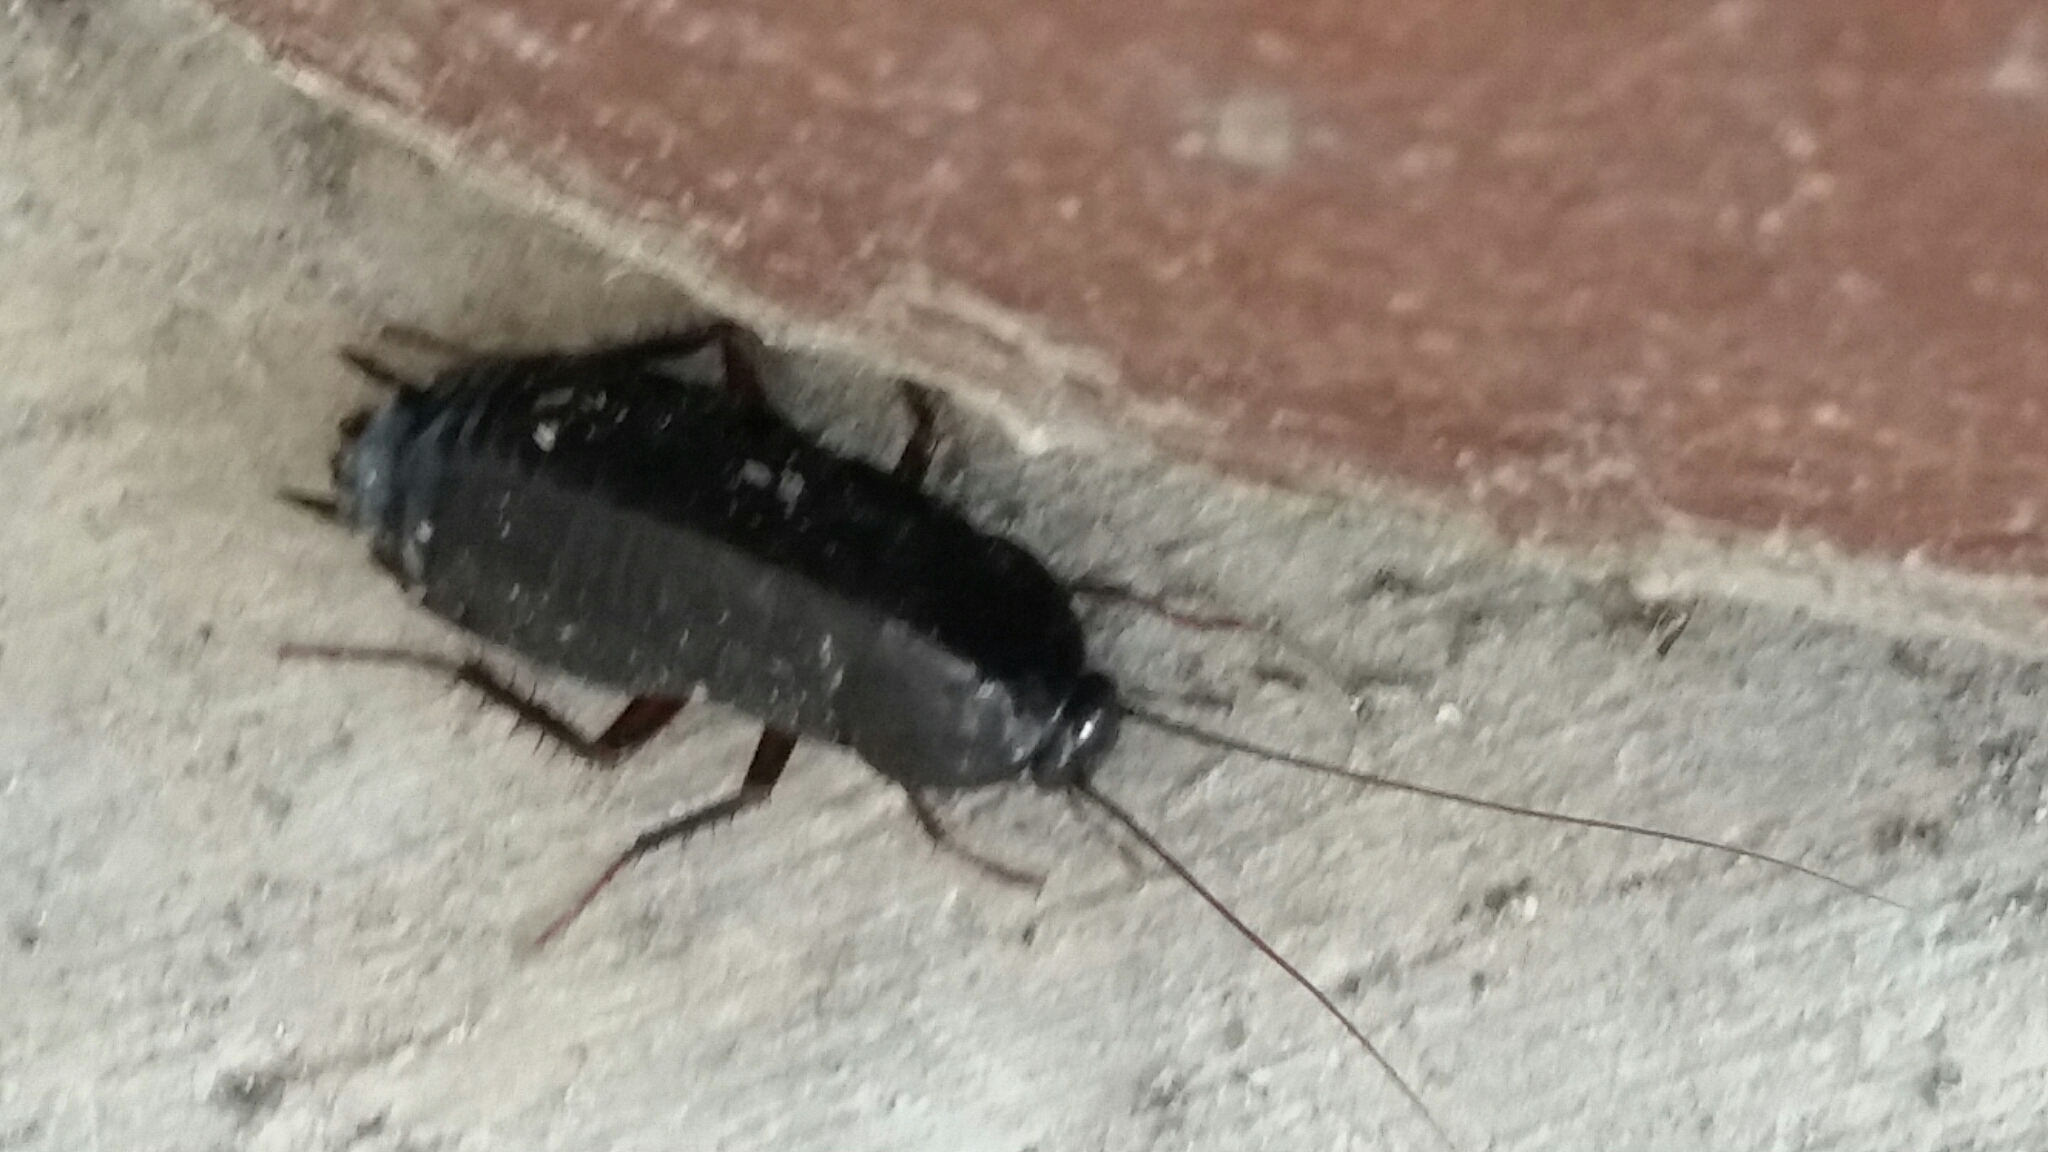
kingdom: Animalia
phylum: Arthropoda
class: Insecta
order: Blattodea
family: Blattidae
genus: Blatta
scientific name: Blatta orientalis
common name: Oriental cockroach
